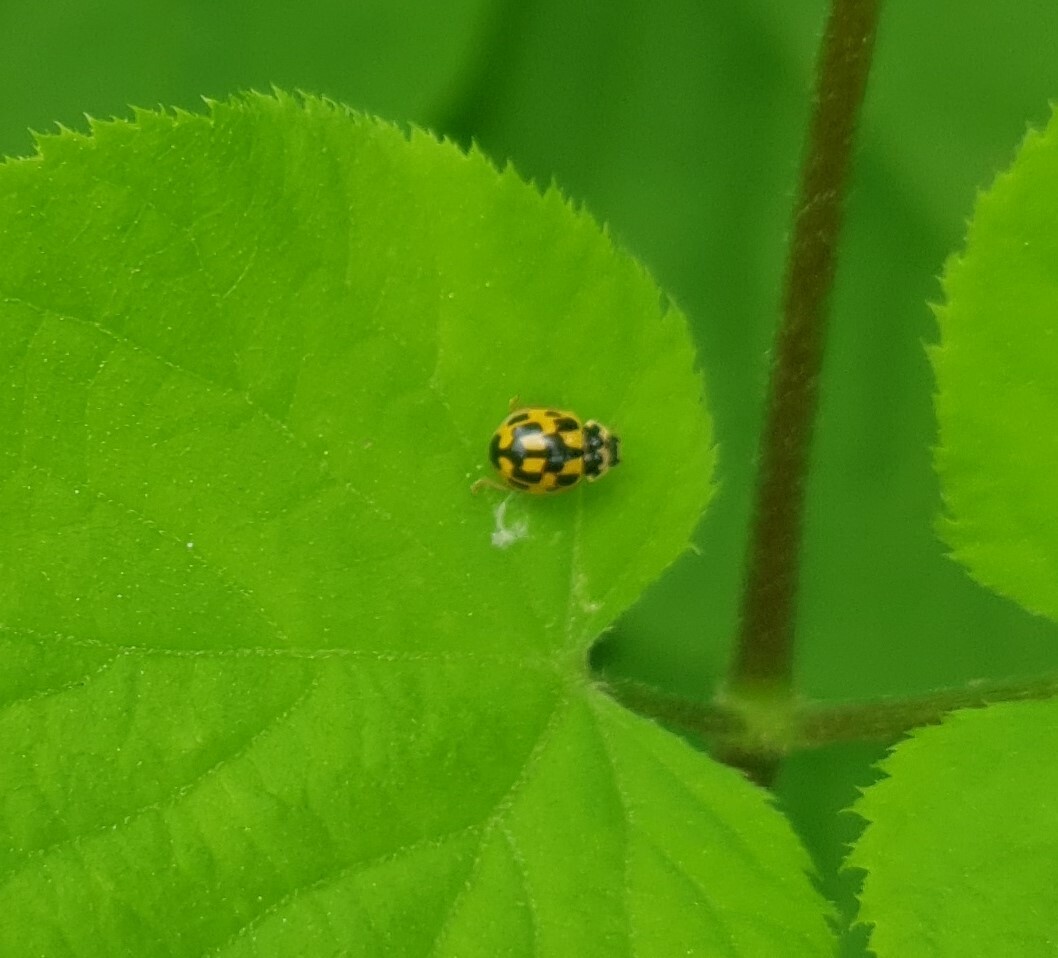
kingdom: Animalia
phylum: Arthropoda
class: Insecta
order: Coleoptera
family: Coccinellidae
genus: Propylaea
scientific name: Propylaea quatuordecimpunctata
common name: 14-spotted ladybird beetle
